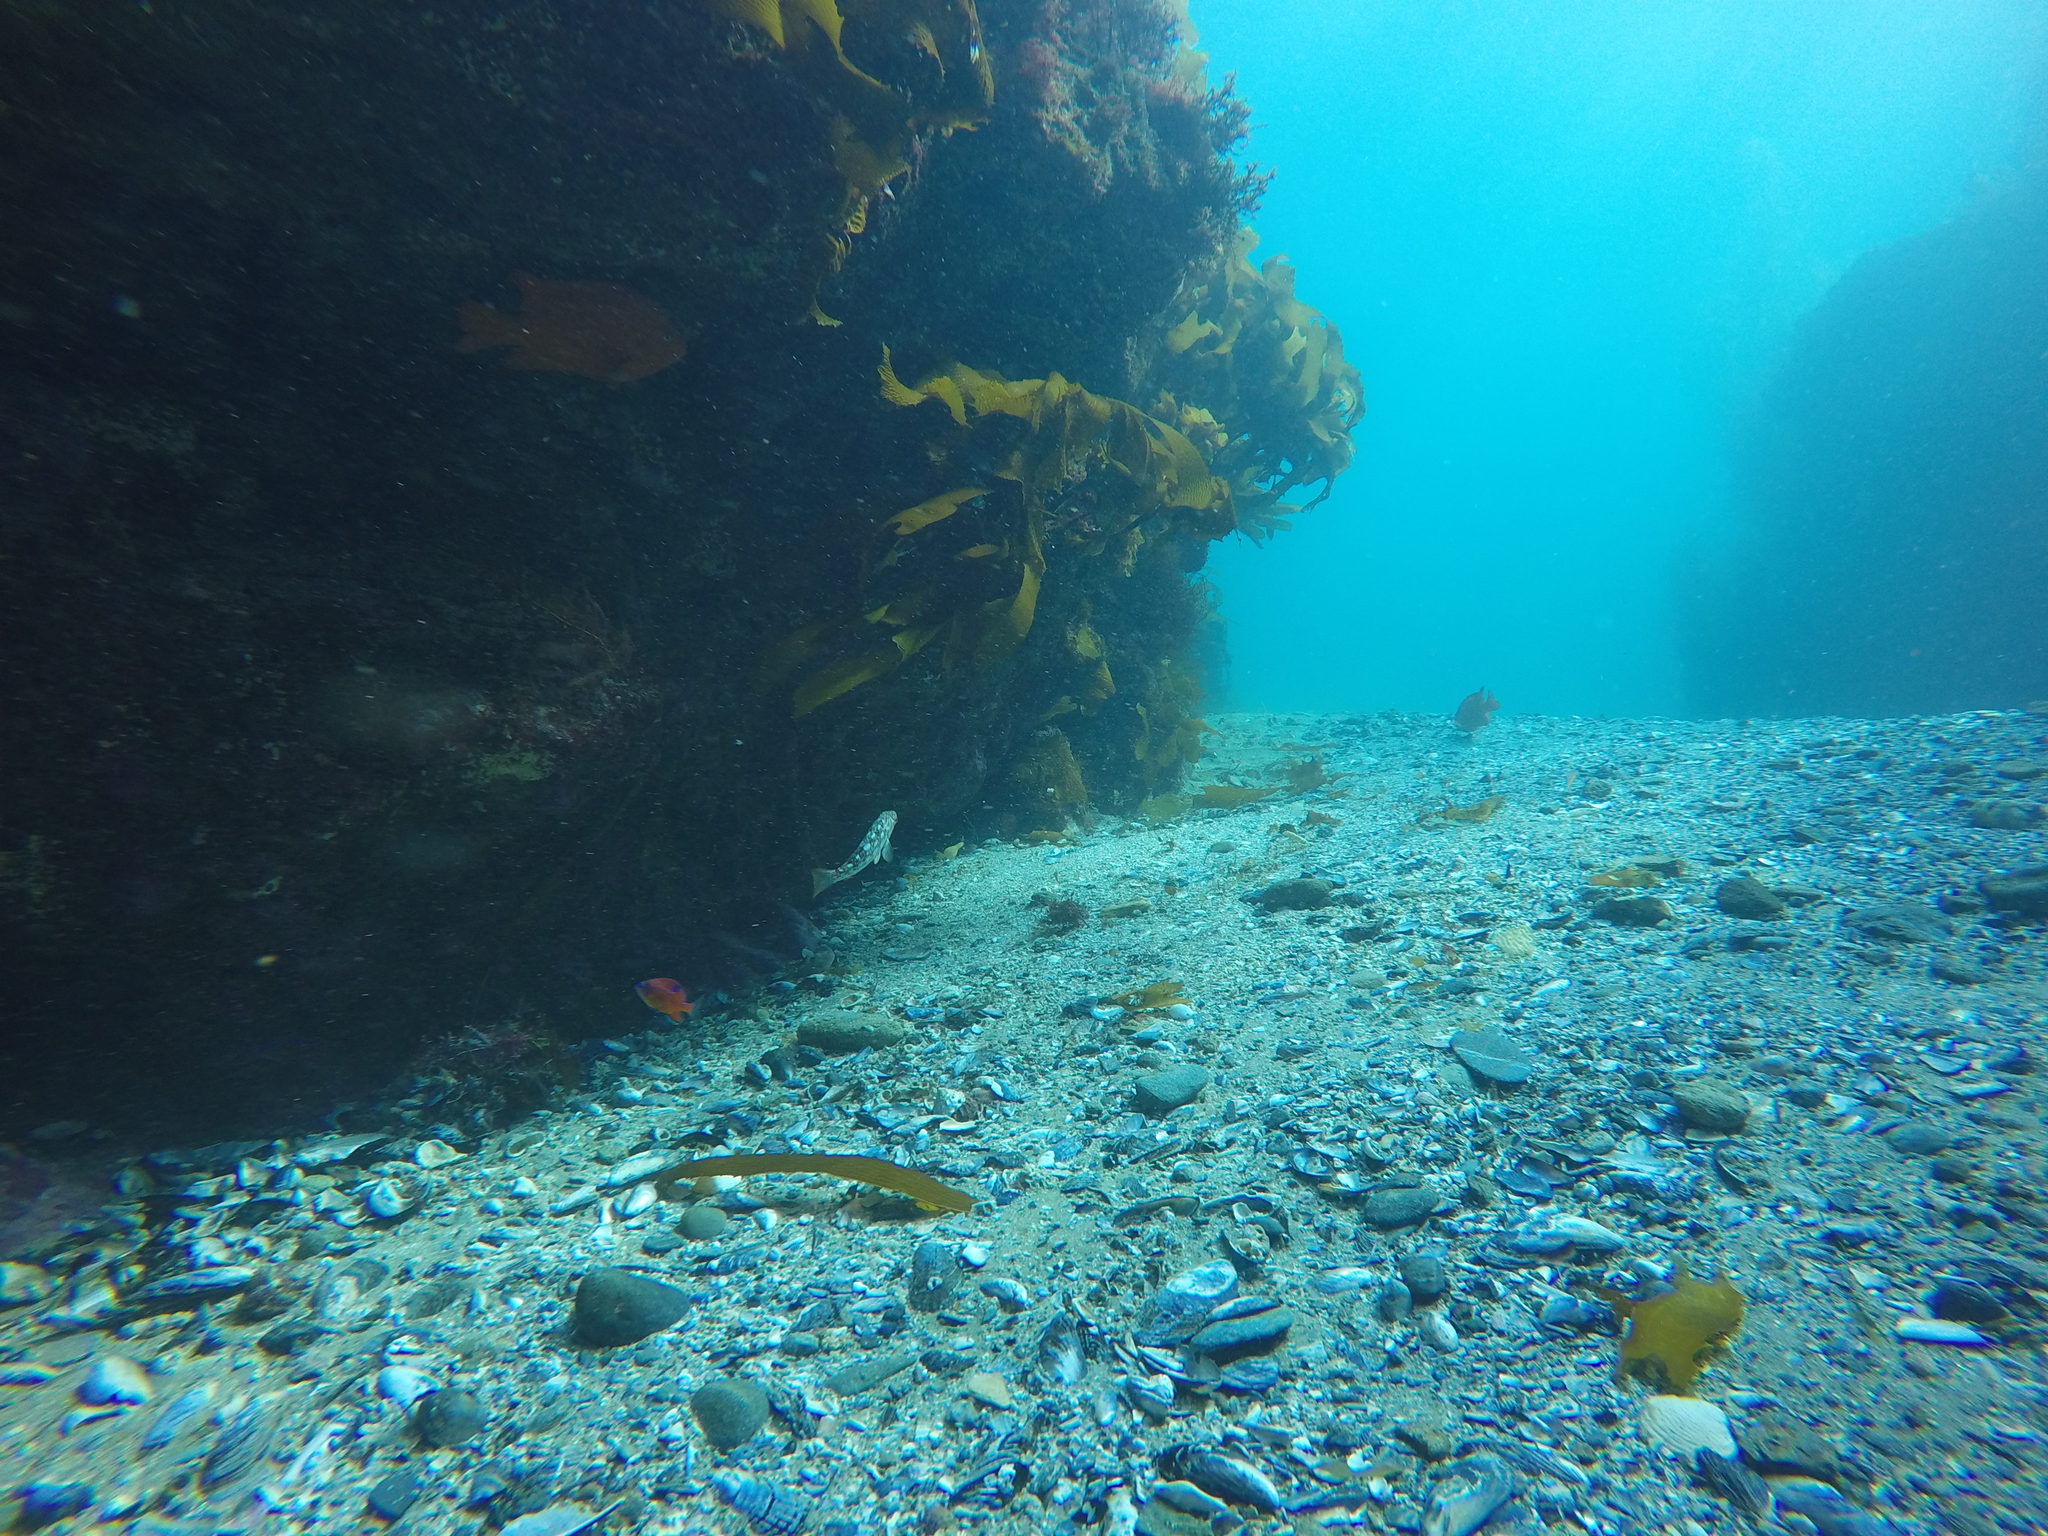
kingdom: Animalia
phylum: Chordata
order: Perciformes
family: Serranidae
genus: Paralabrax
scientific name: Paralabrax clathratus
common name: Kelp bass
